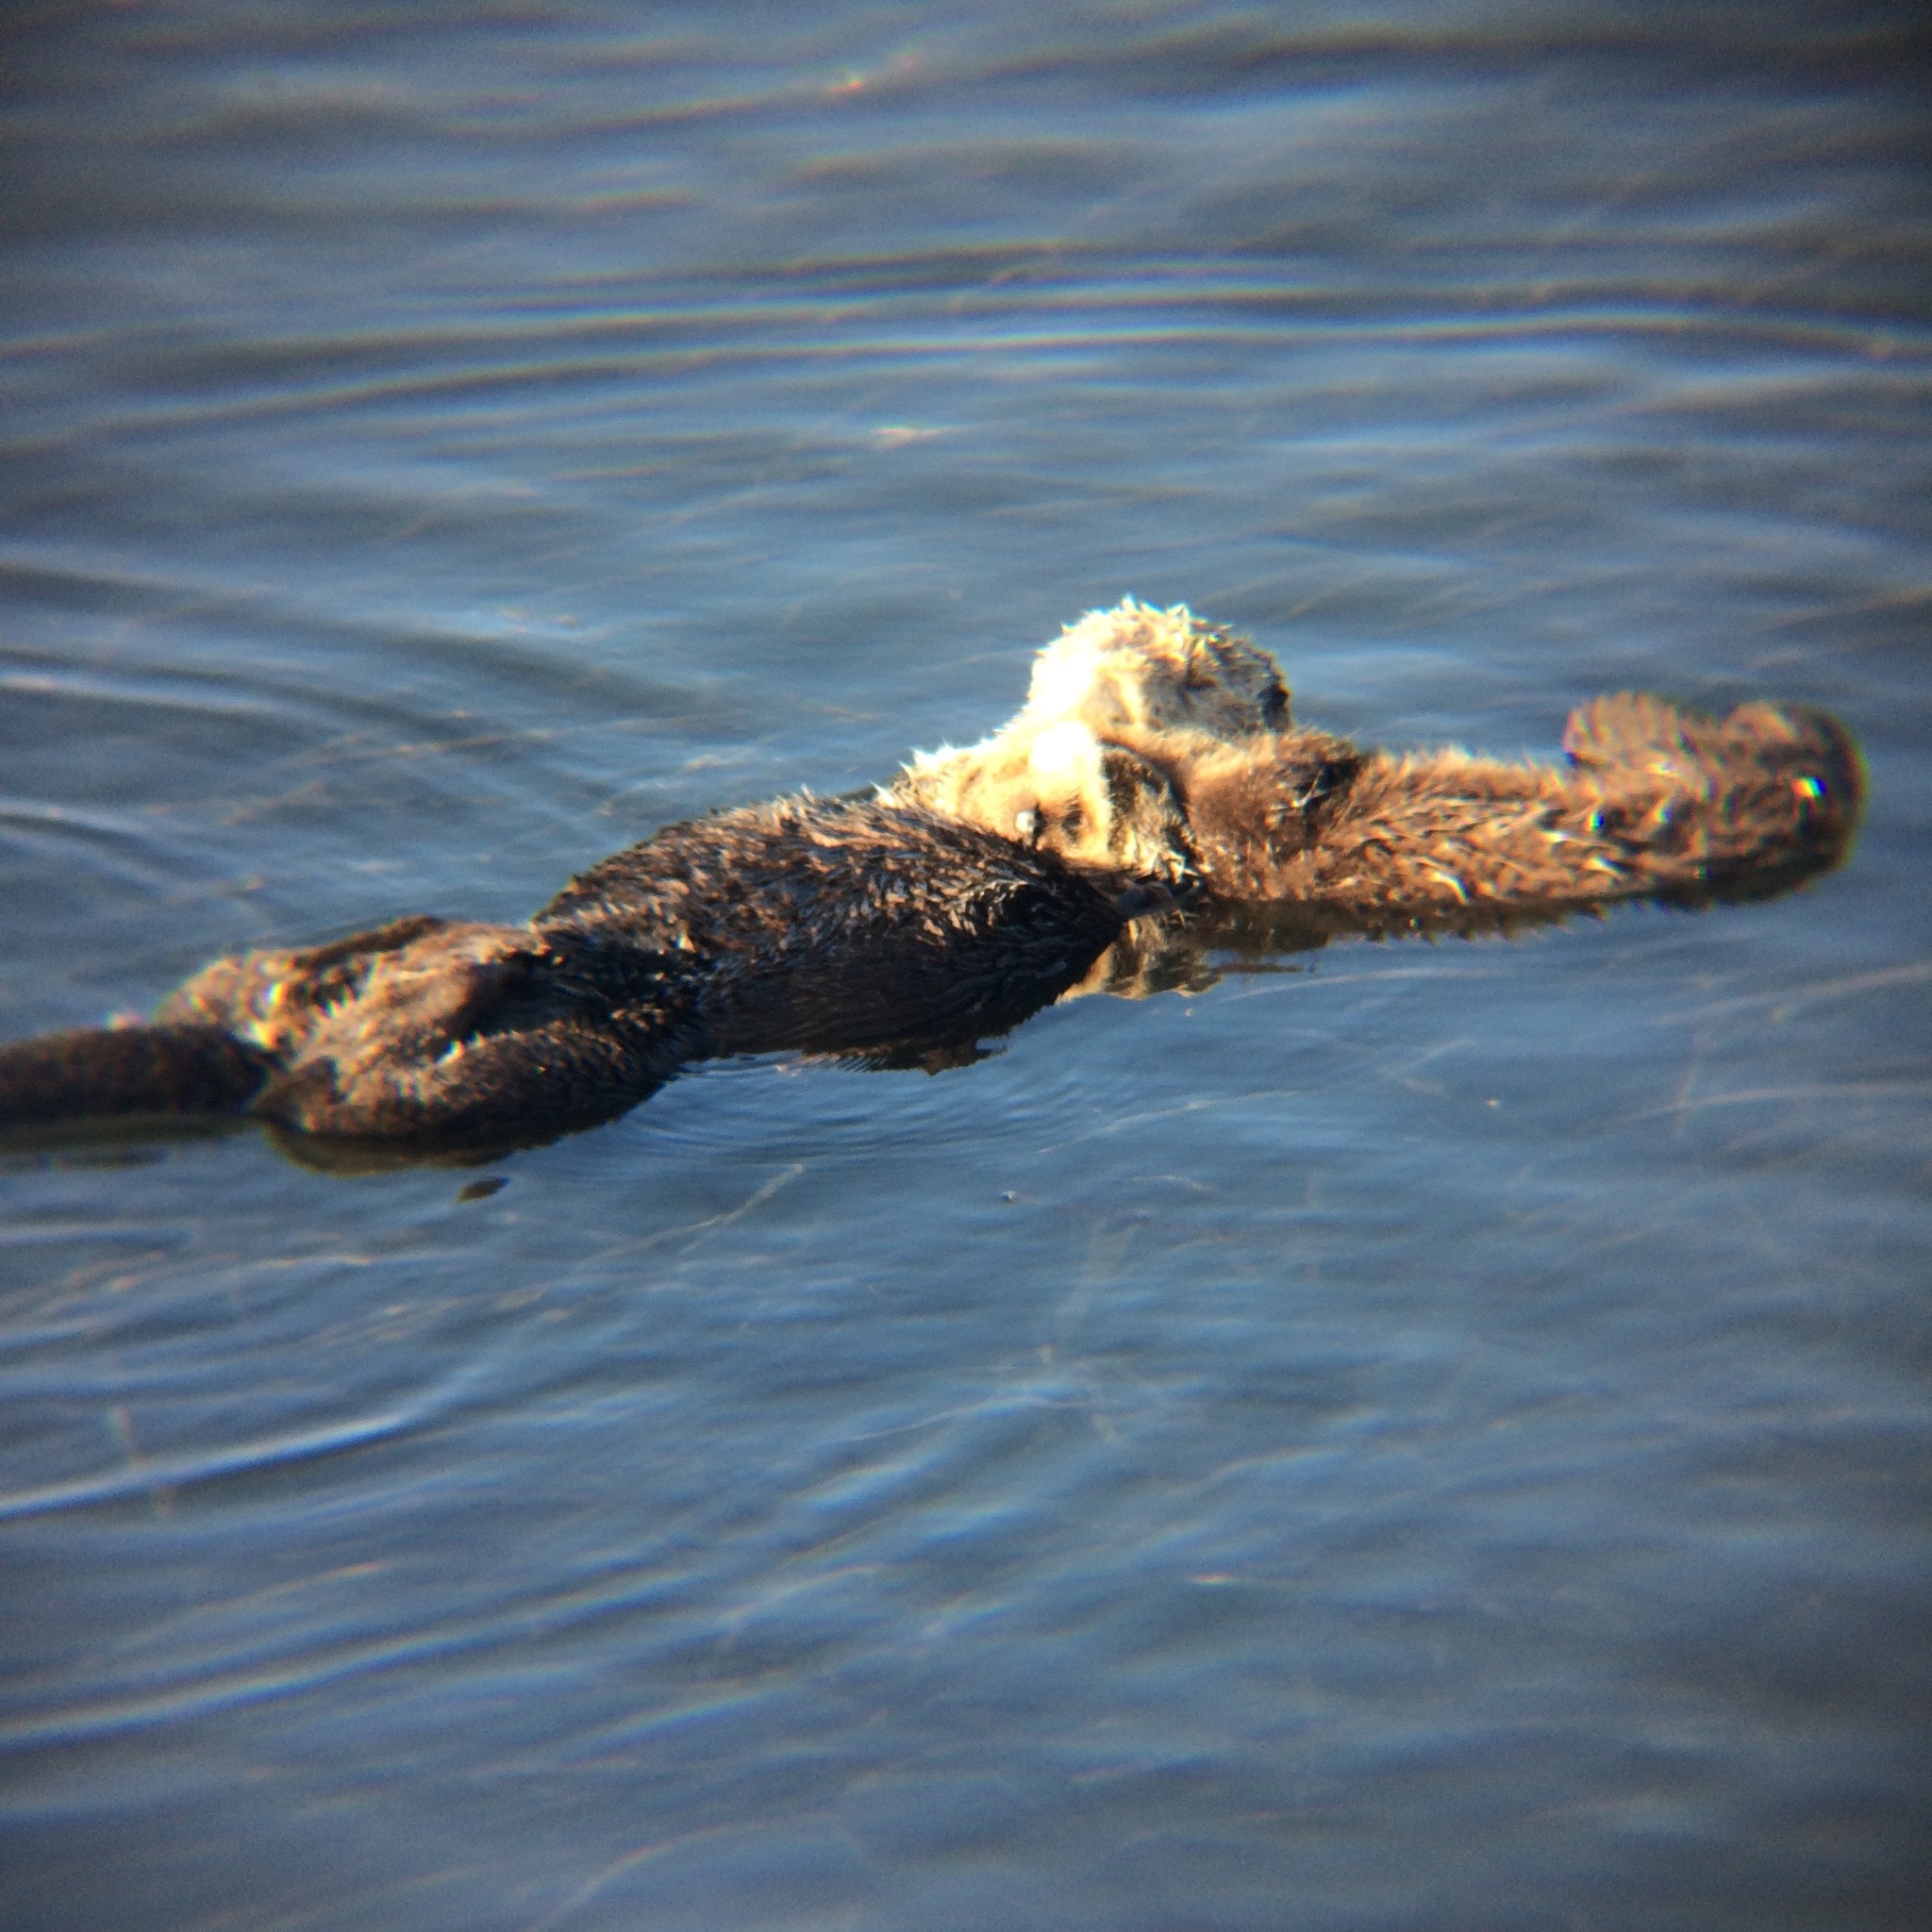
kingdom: Animalia
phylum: Chordata
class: Mammalia
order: Carnivora
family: Mustelidae
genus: Enhydra
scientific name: Enhydra lutris
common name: Sea otter
